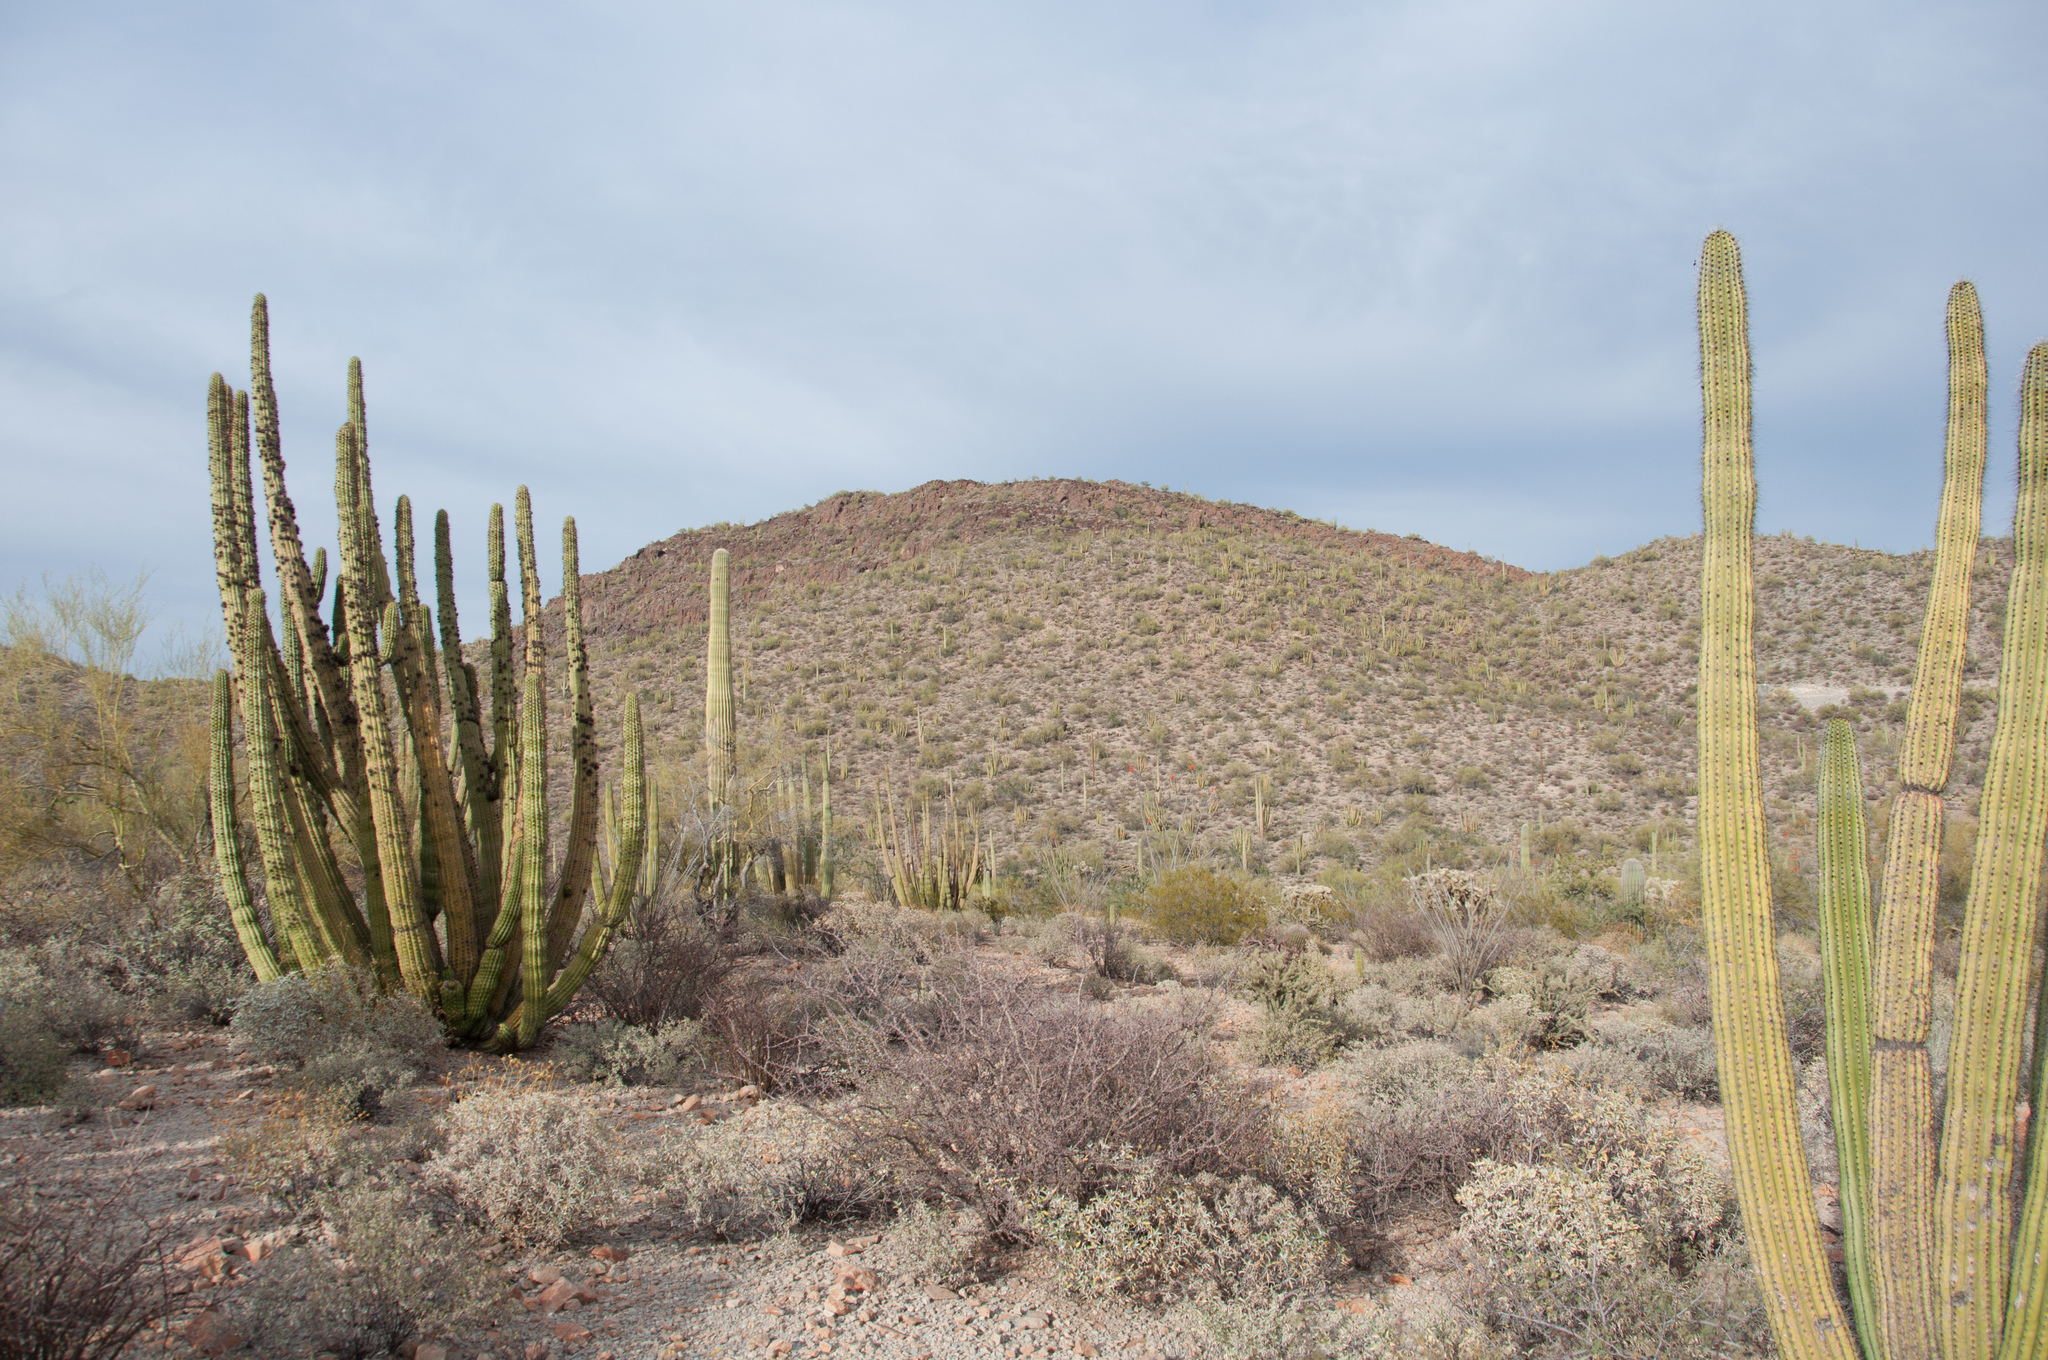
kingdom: Plantae
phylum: Tracheophyta
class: Magnoliopsida
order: Caryophyllales
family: Cactaceae
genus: Stenocereus
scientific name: Stenocereus thurberi
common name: Organ pipe cactus
